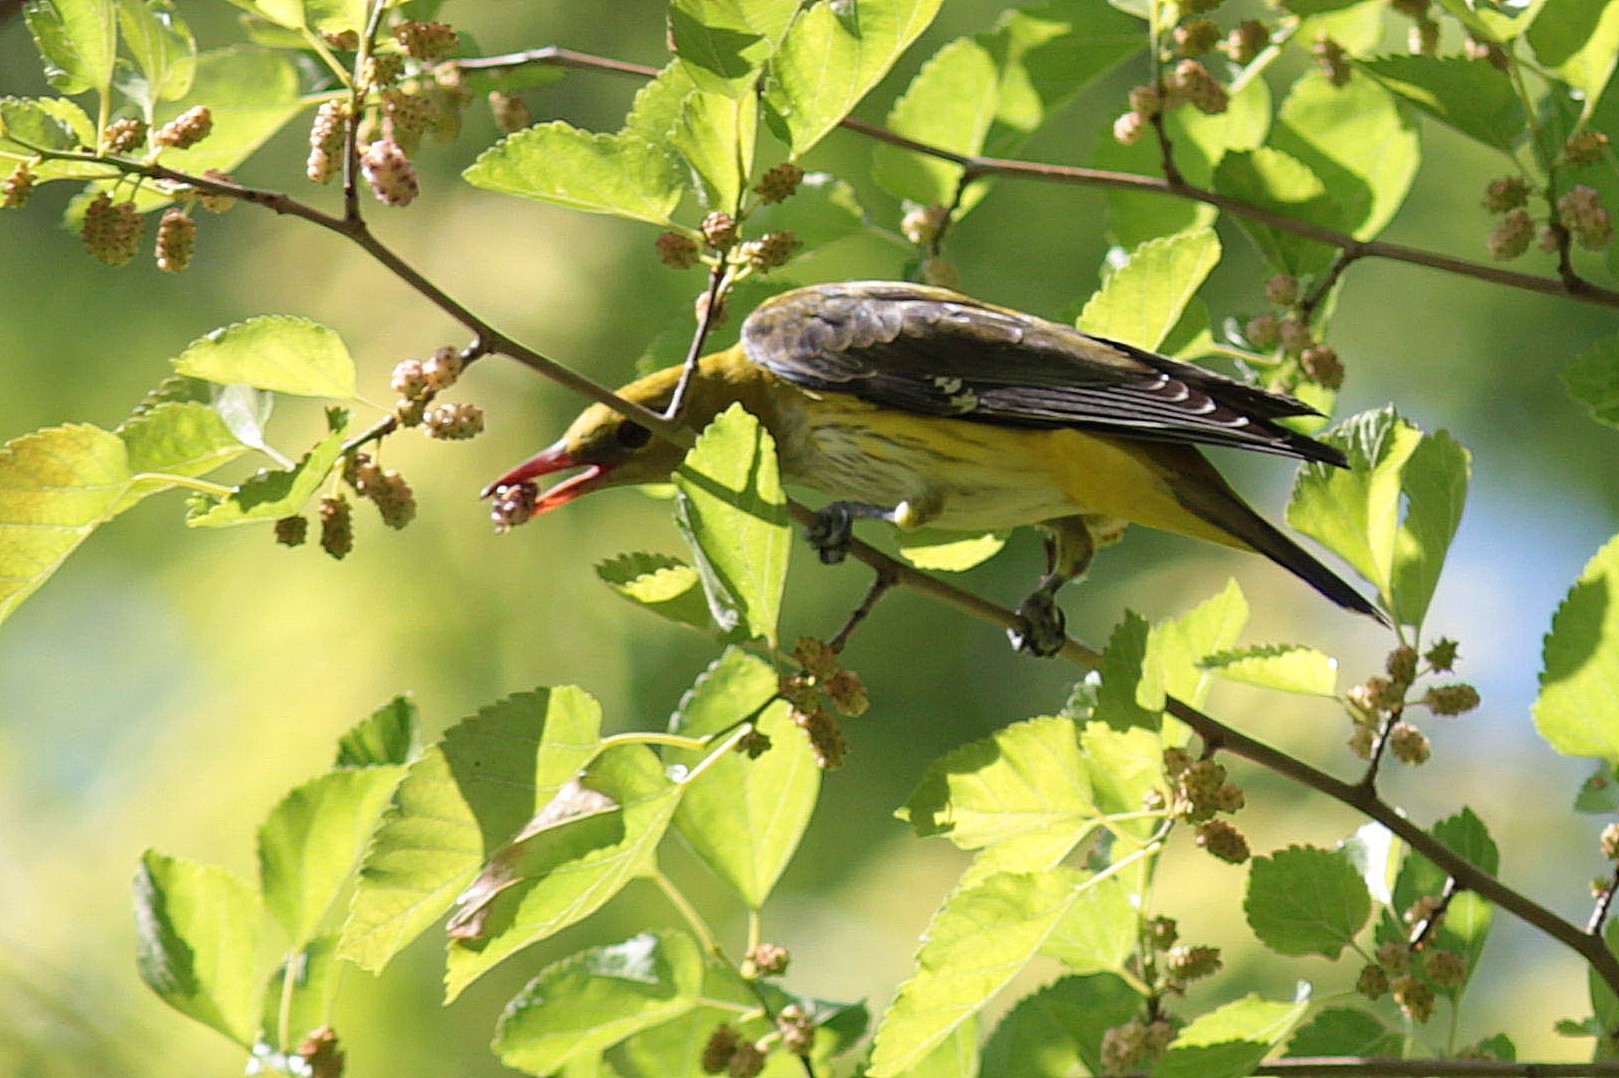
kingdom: Animalia
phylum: Chordata
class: Aves
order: Passeriformes
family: Oriolidae
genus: Oriolus
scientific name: Oriolus oriolus
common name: Eurasian golden oriole
